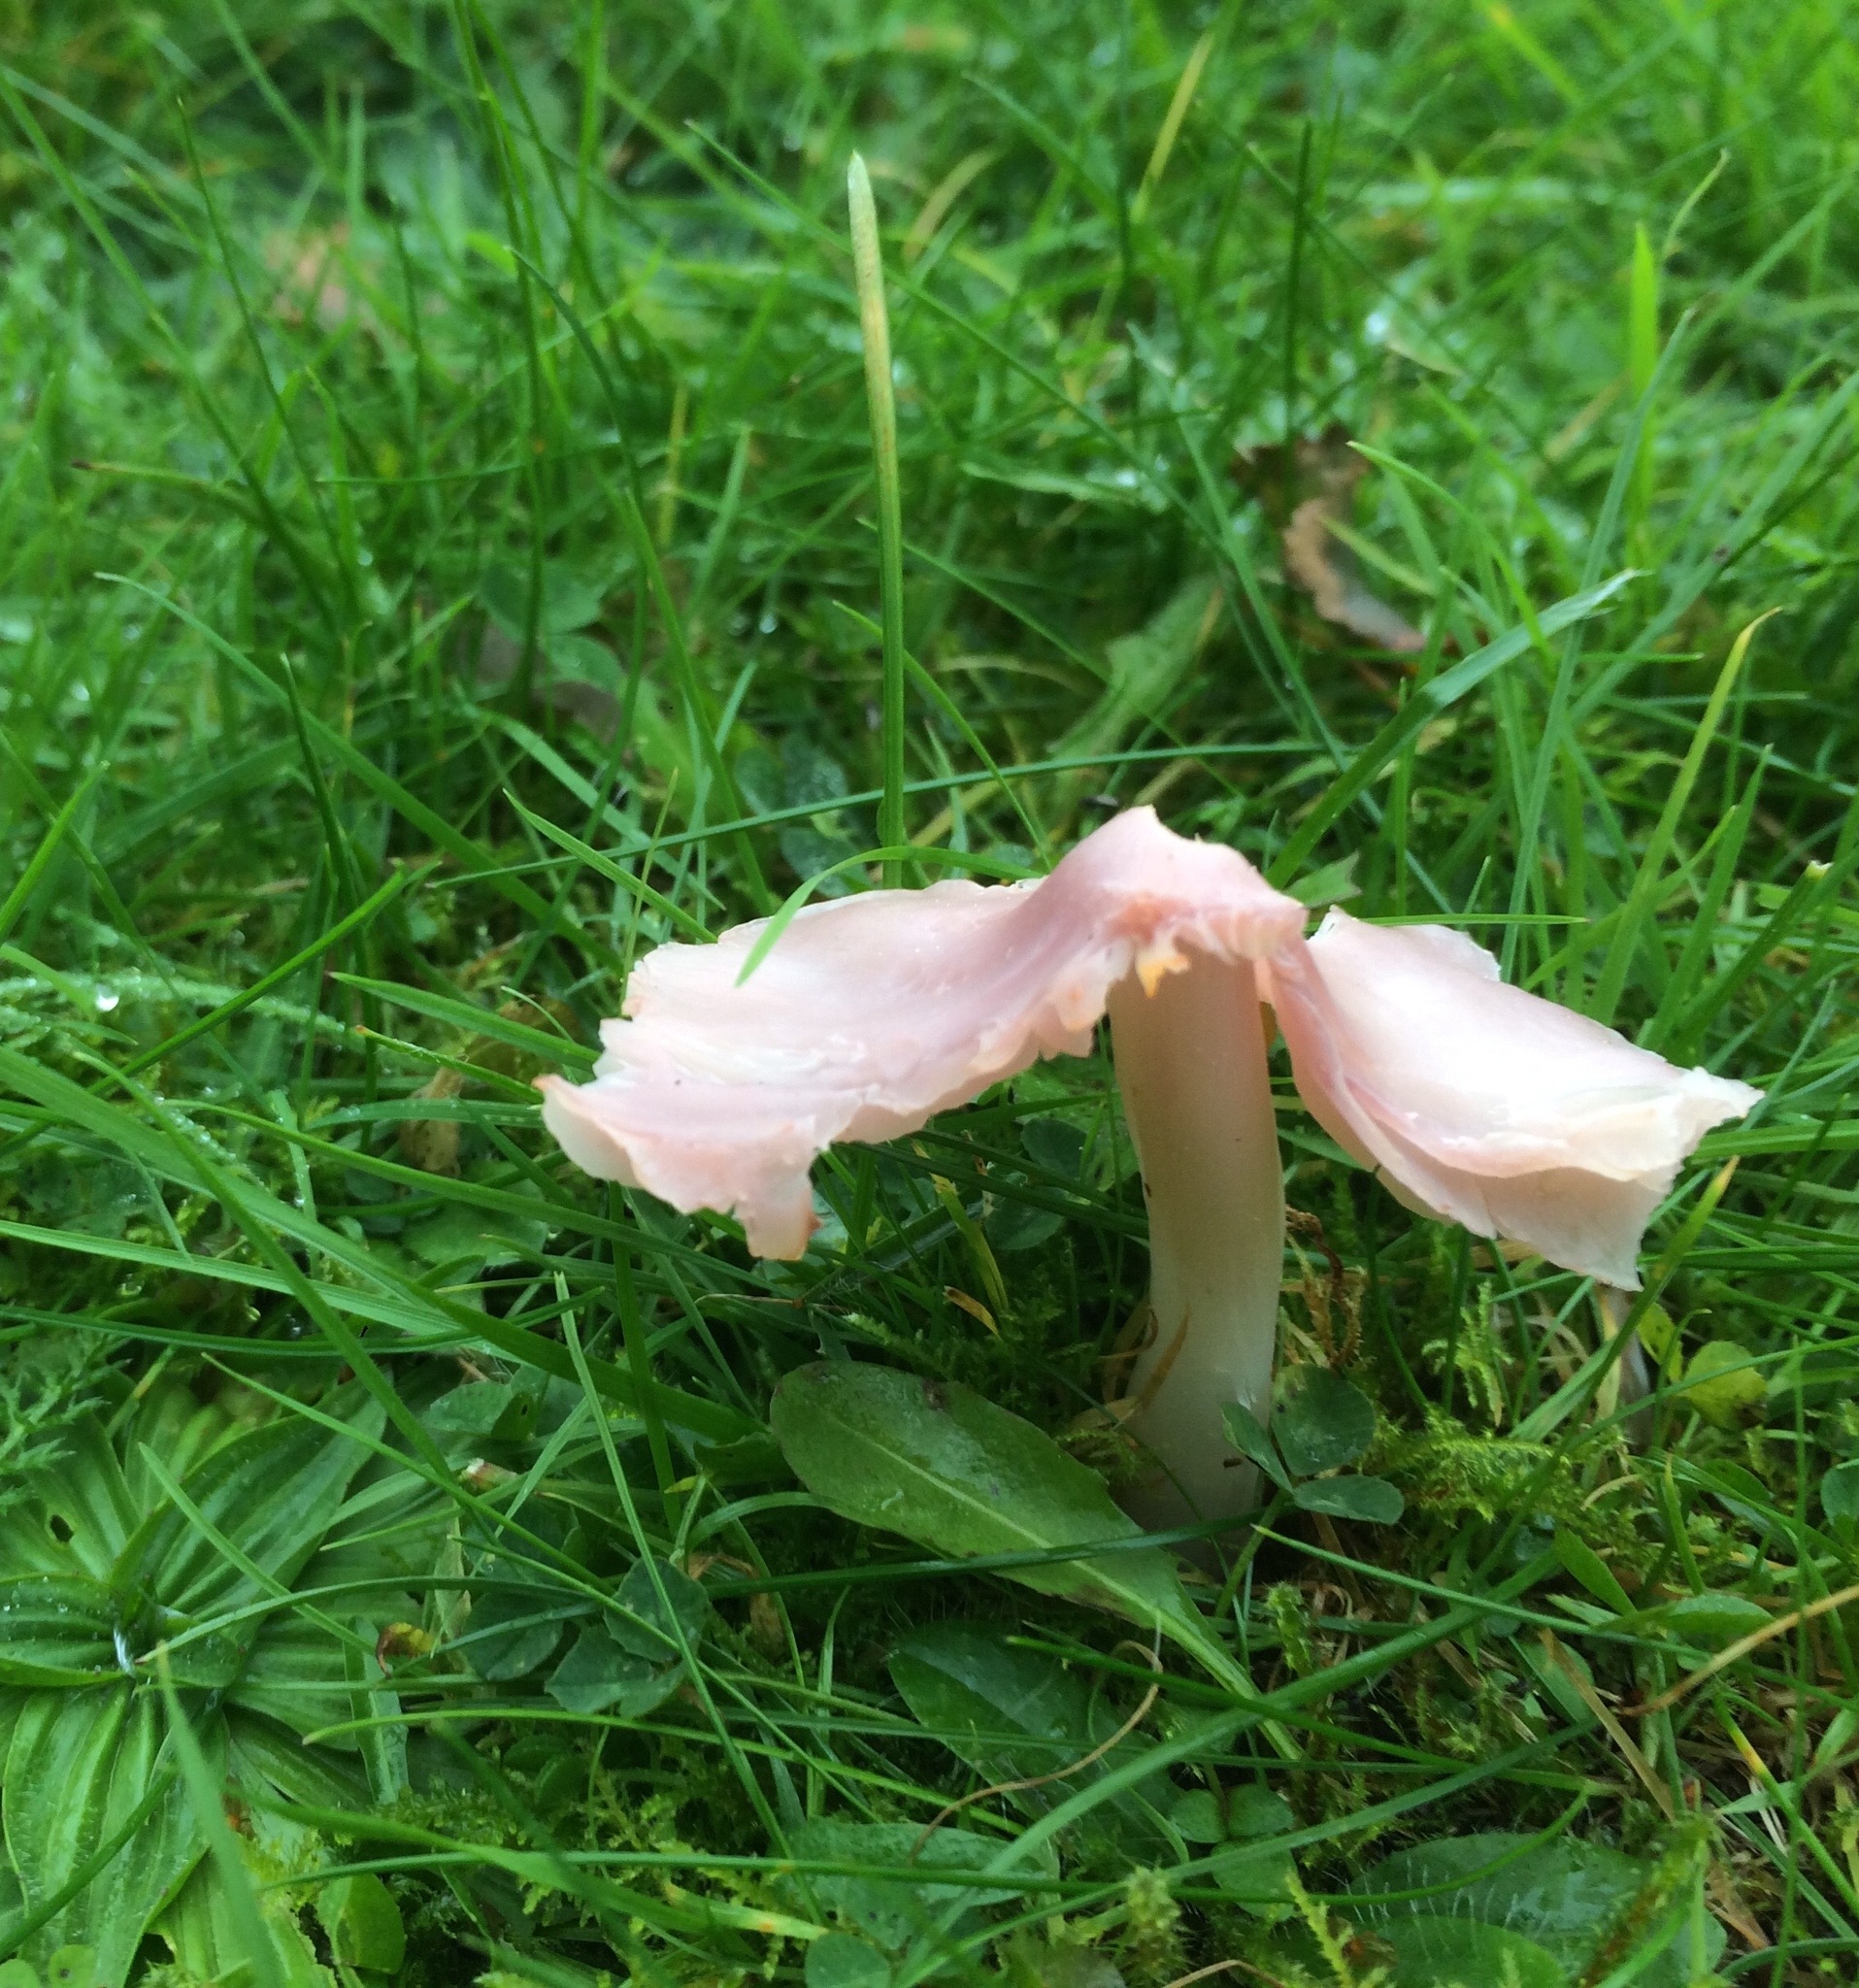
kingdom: Fungi
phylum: Basidiomycota
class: Agaricomycetes
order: Agaricales
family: Hygrophoraceae
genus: Porpolomopsis
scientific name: Porpolomopsis calyptriformis
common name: Pink waxcap
